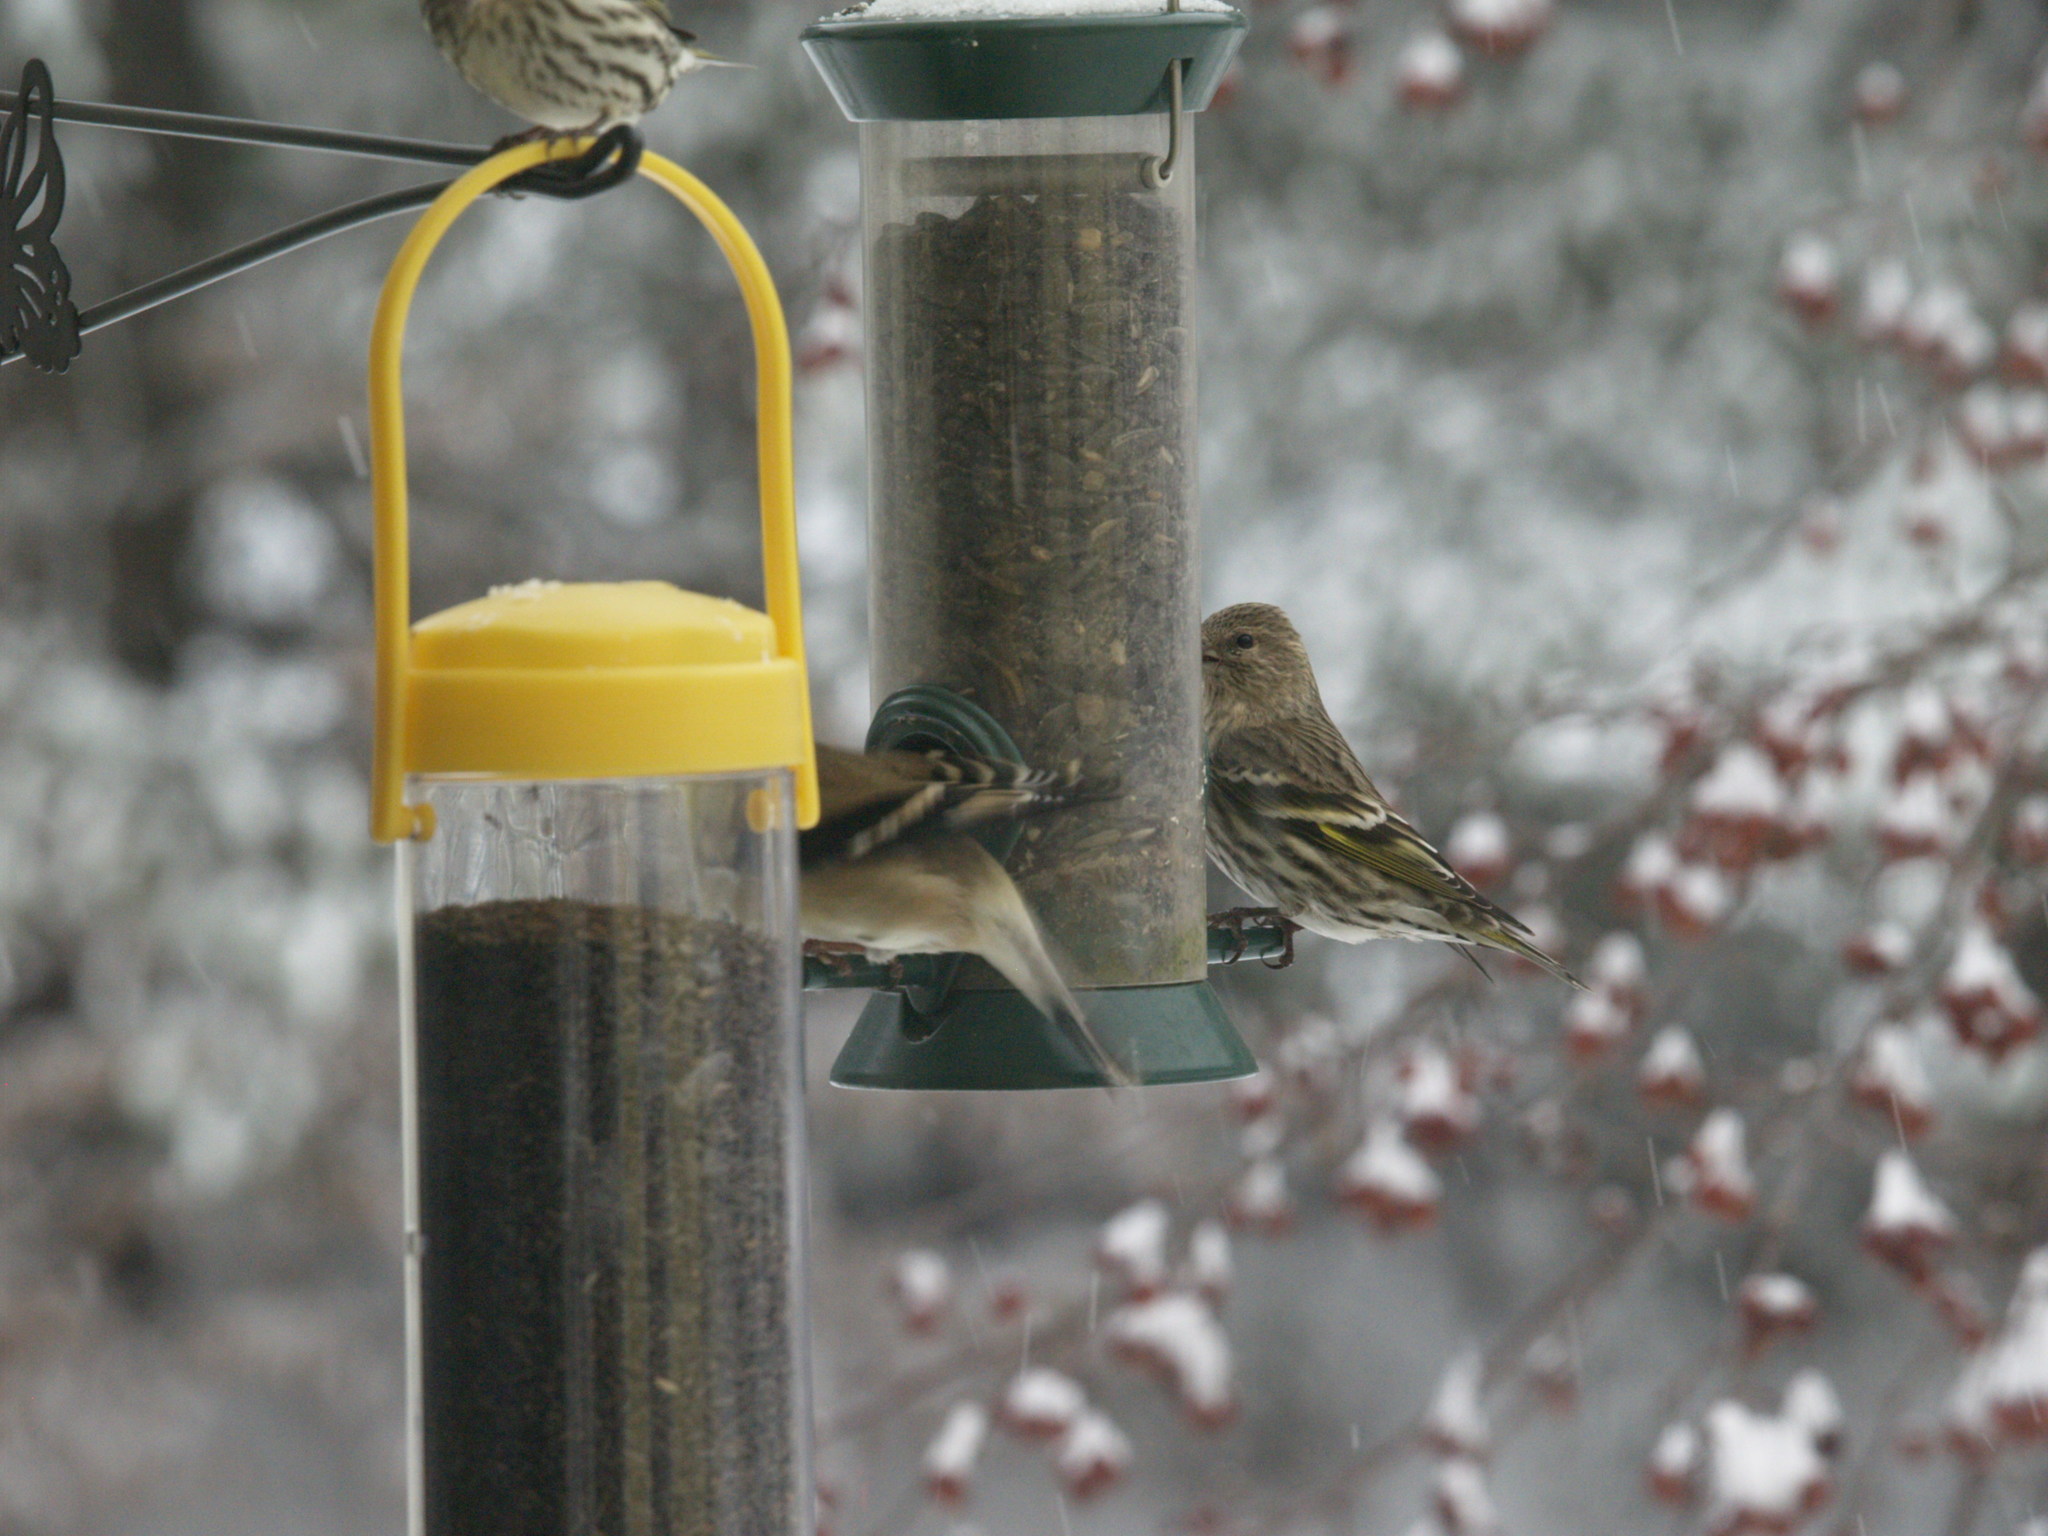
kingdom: Animalia
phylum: Chordata
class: Aves
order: Passeriformes
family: Fringillidae
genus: Spinus
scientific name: Spinus pinus
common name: Pine siskin
